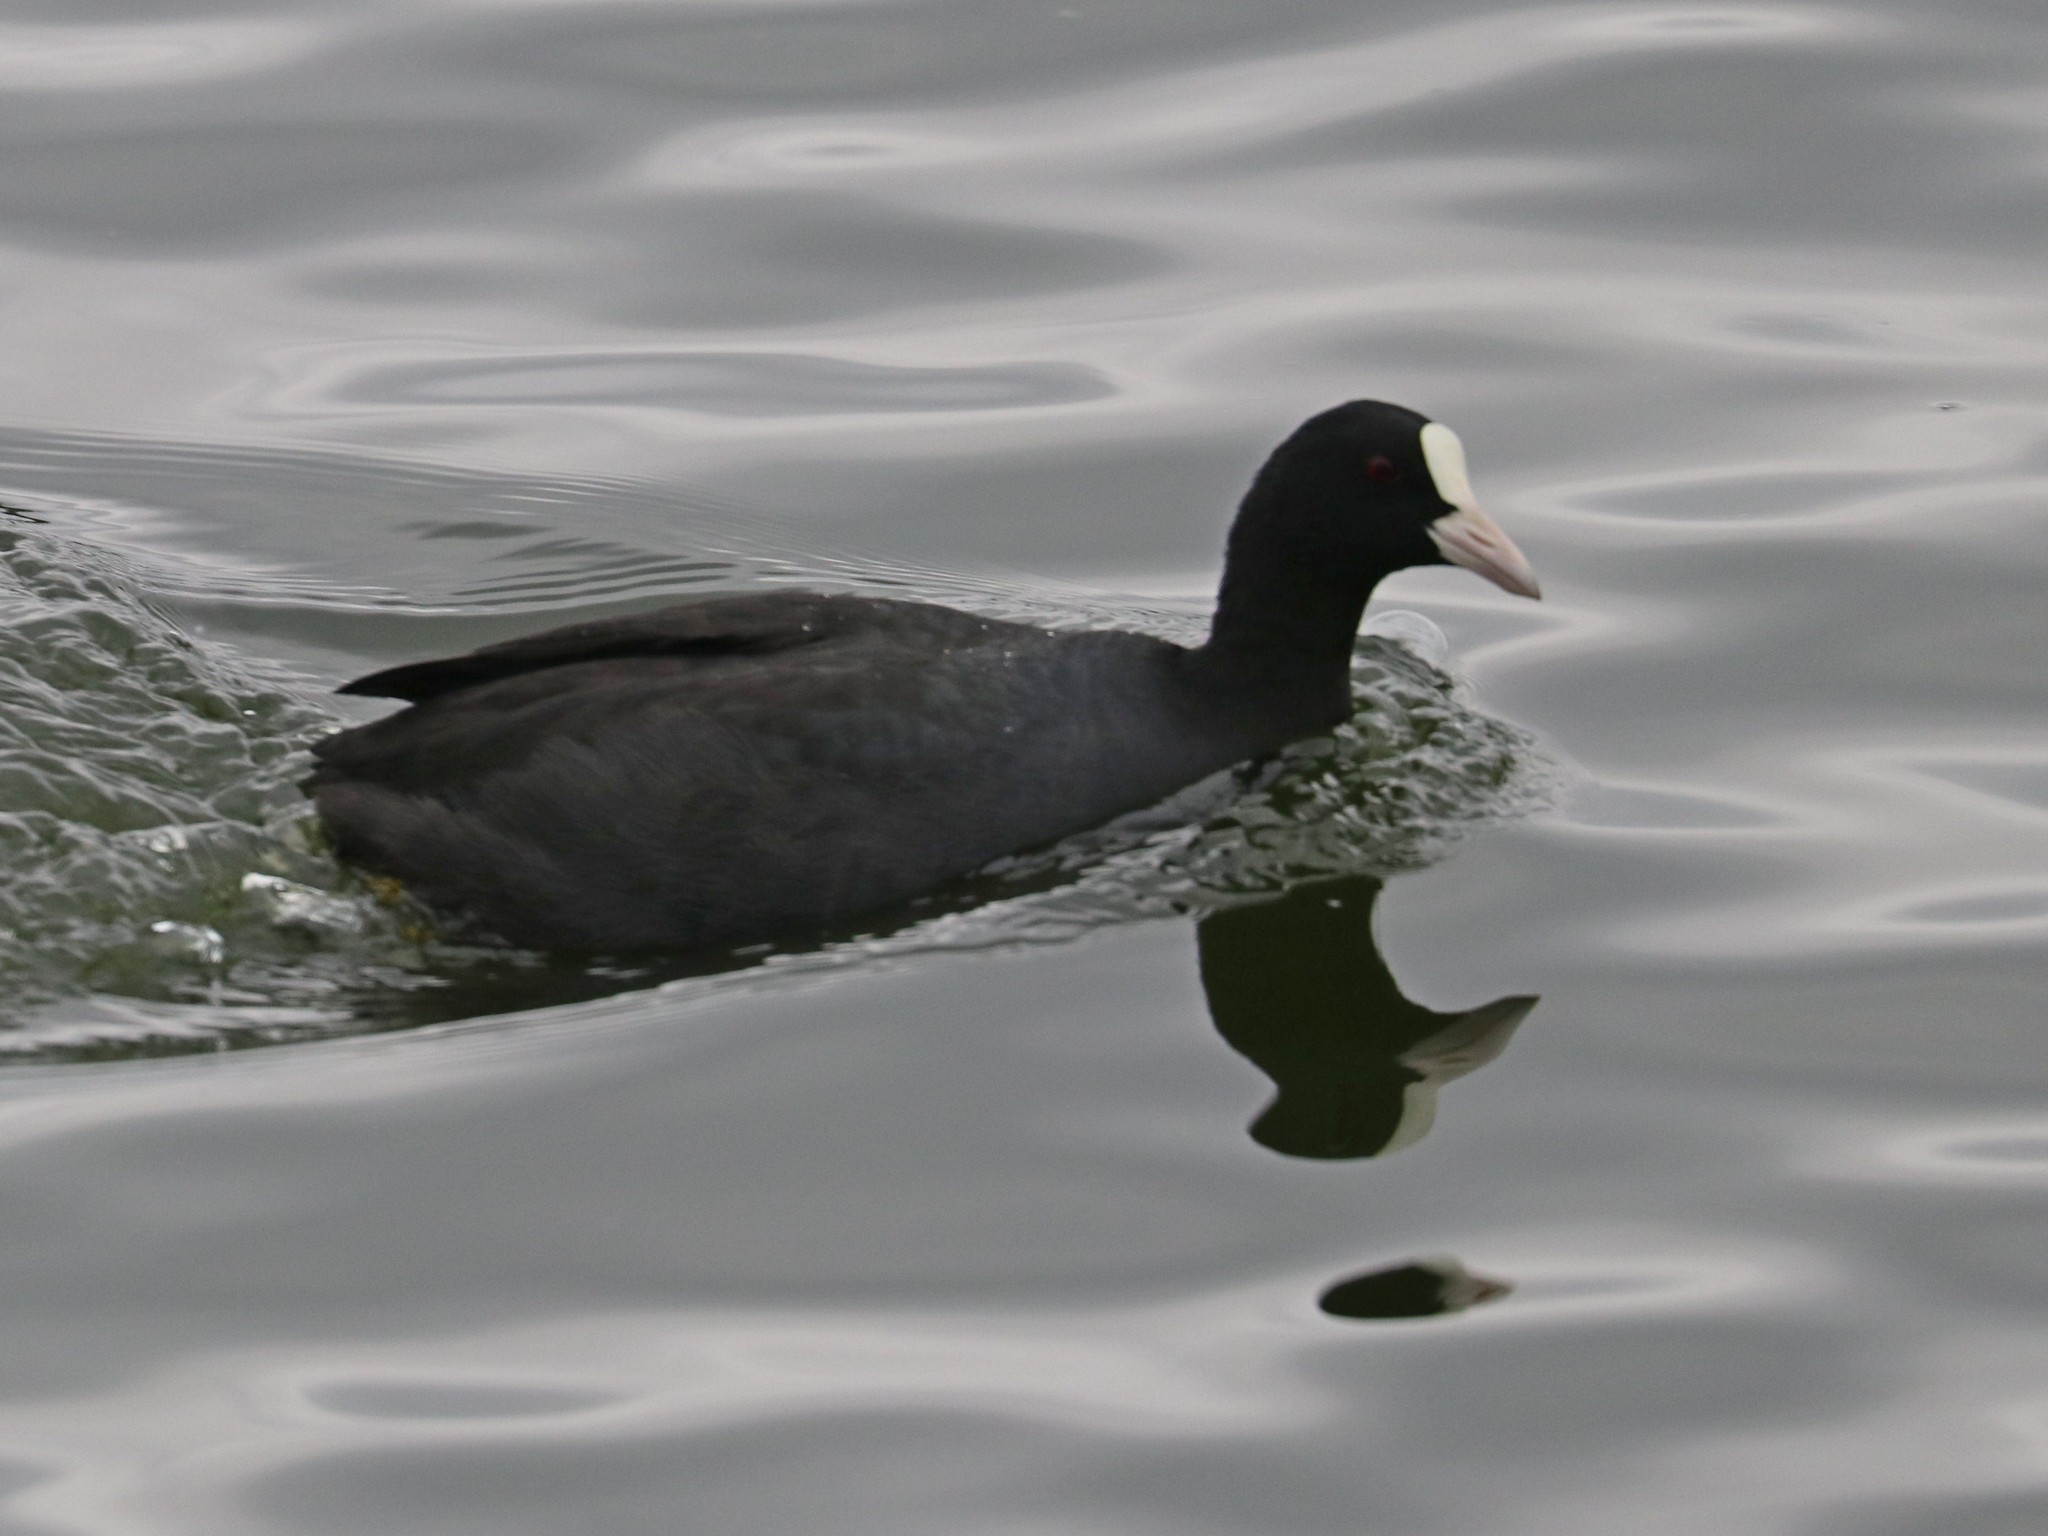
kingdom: Animalia
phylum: Chordata
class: Aves
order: Gruiformes
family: Rallidae
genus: Fulica
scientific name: Fulica atra
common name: Eurasian coot
